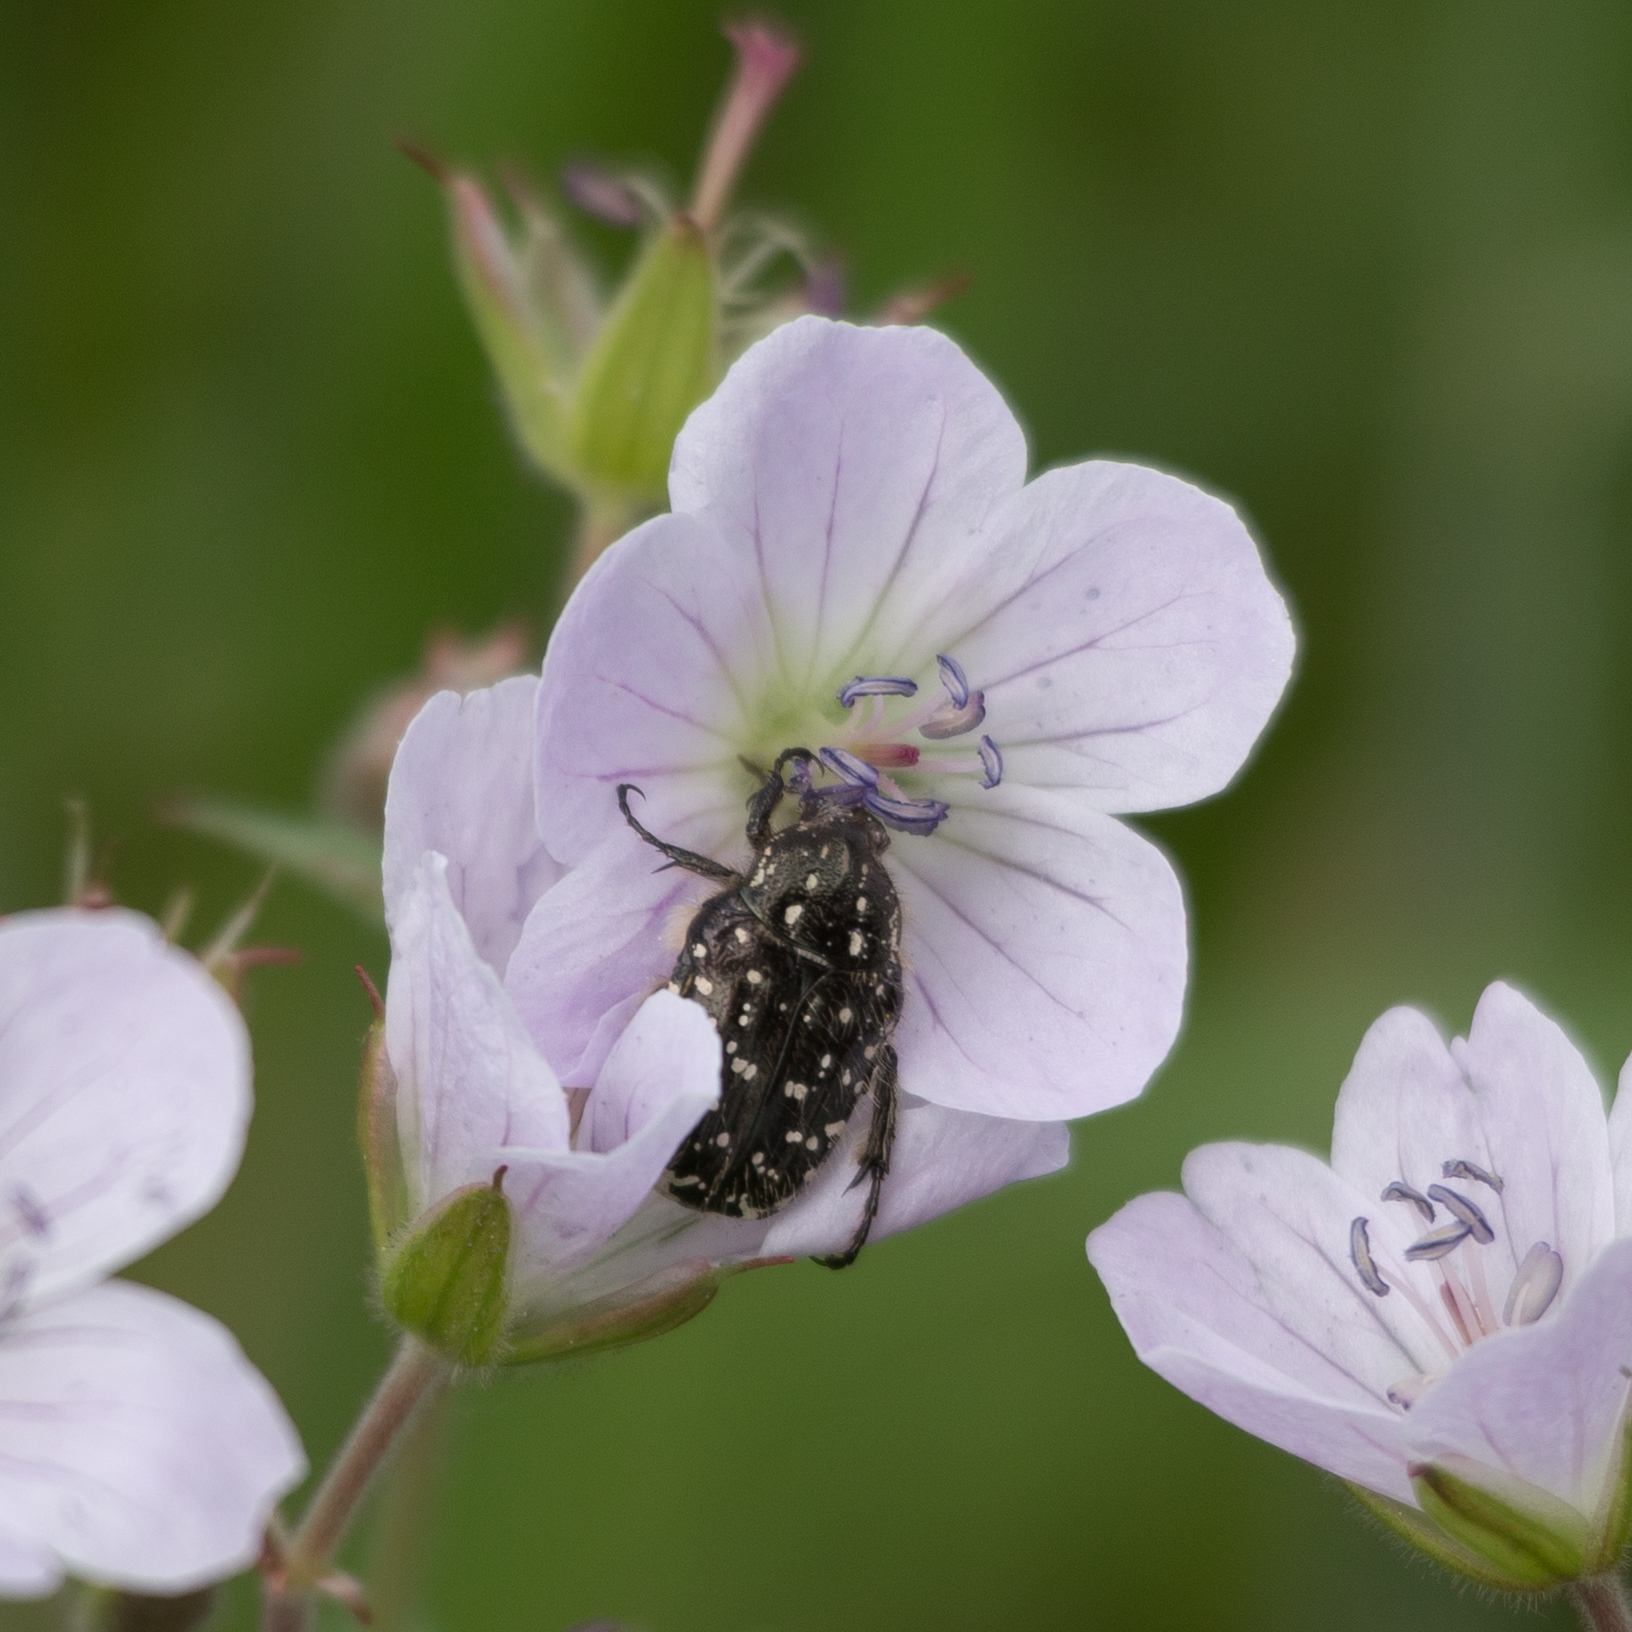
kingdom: Animalia
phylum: Arthropoda
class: Insecta
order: Coleoptera
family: Scarabaeidae
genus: Oxythyrea
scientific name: Oxythyrea funesta
